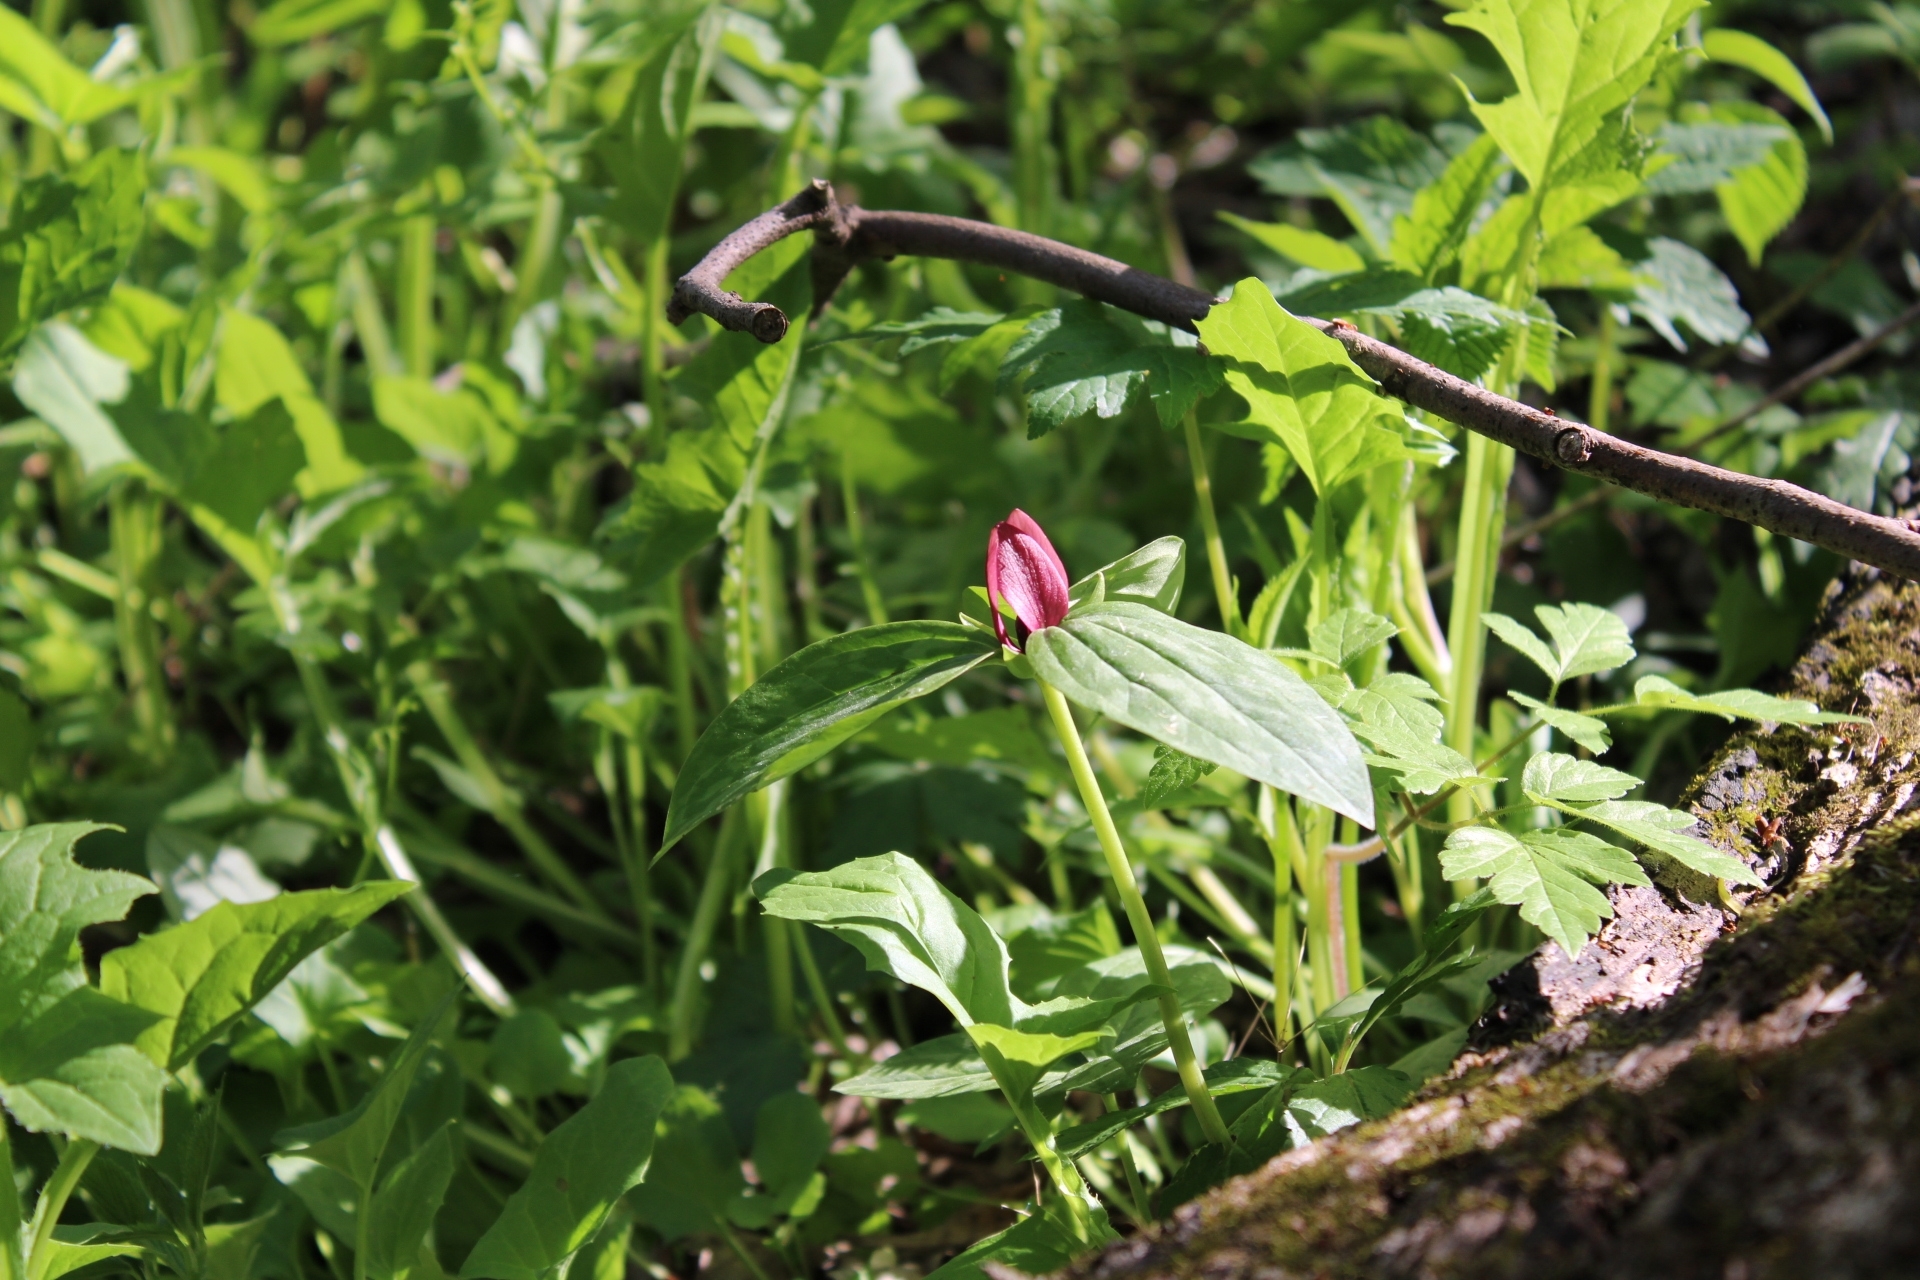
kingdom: Plantae
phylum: Tracheophyta
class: Liliopsida
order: Liliales
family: Melanthiaceae
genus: Trillium
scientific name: Trillium recurvatum
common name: Bloody butcher
